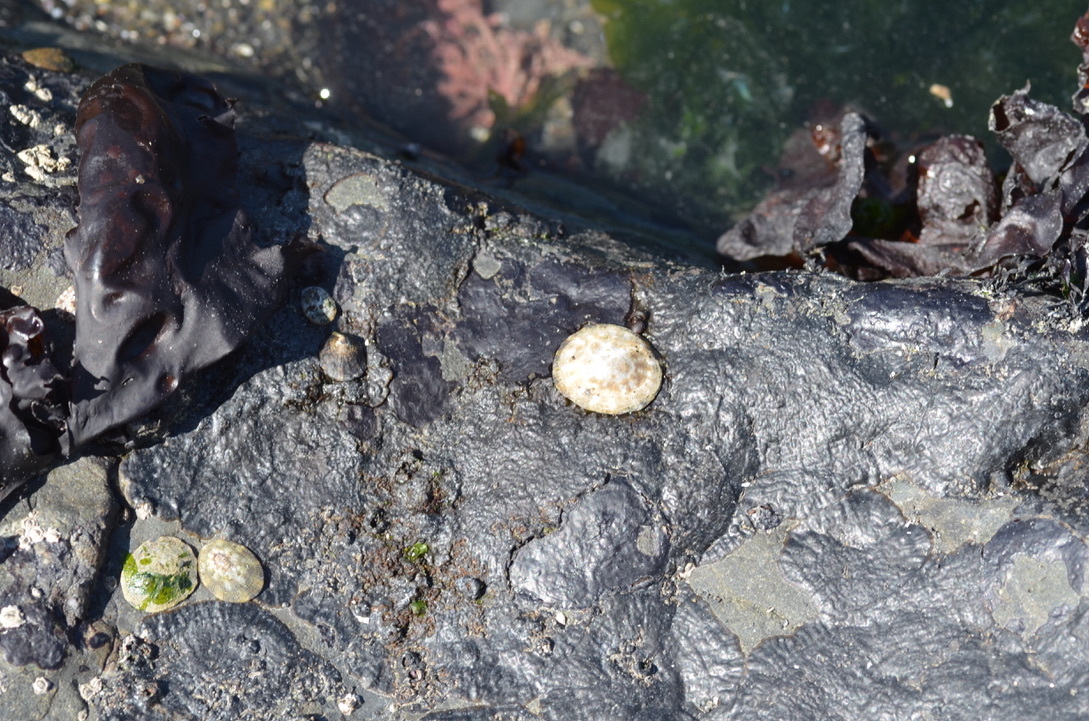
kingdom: Animalia
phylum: Mollusca
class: Gastropoda
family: Lottiidae
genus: Lottia
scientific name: Lottia scutum
